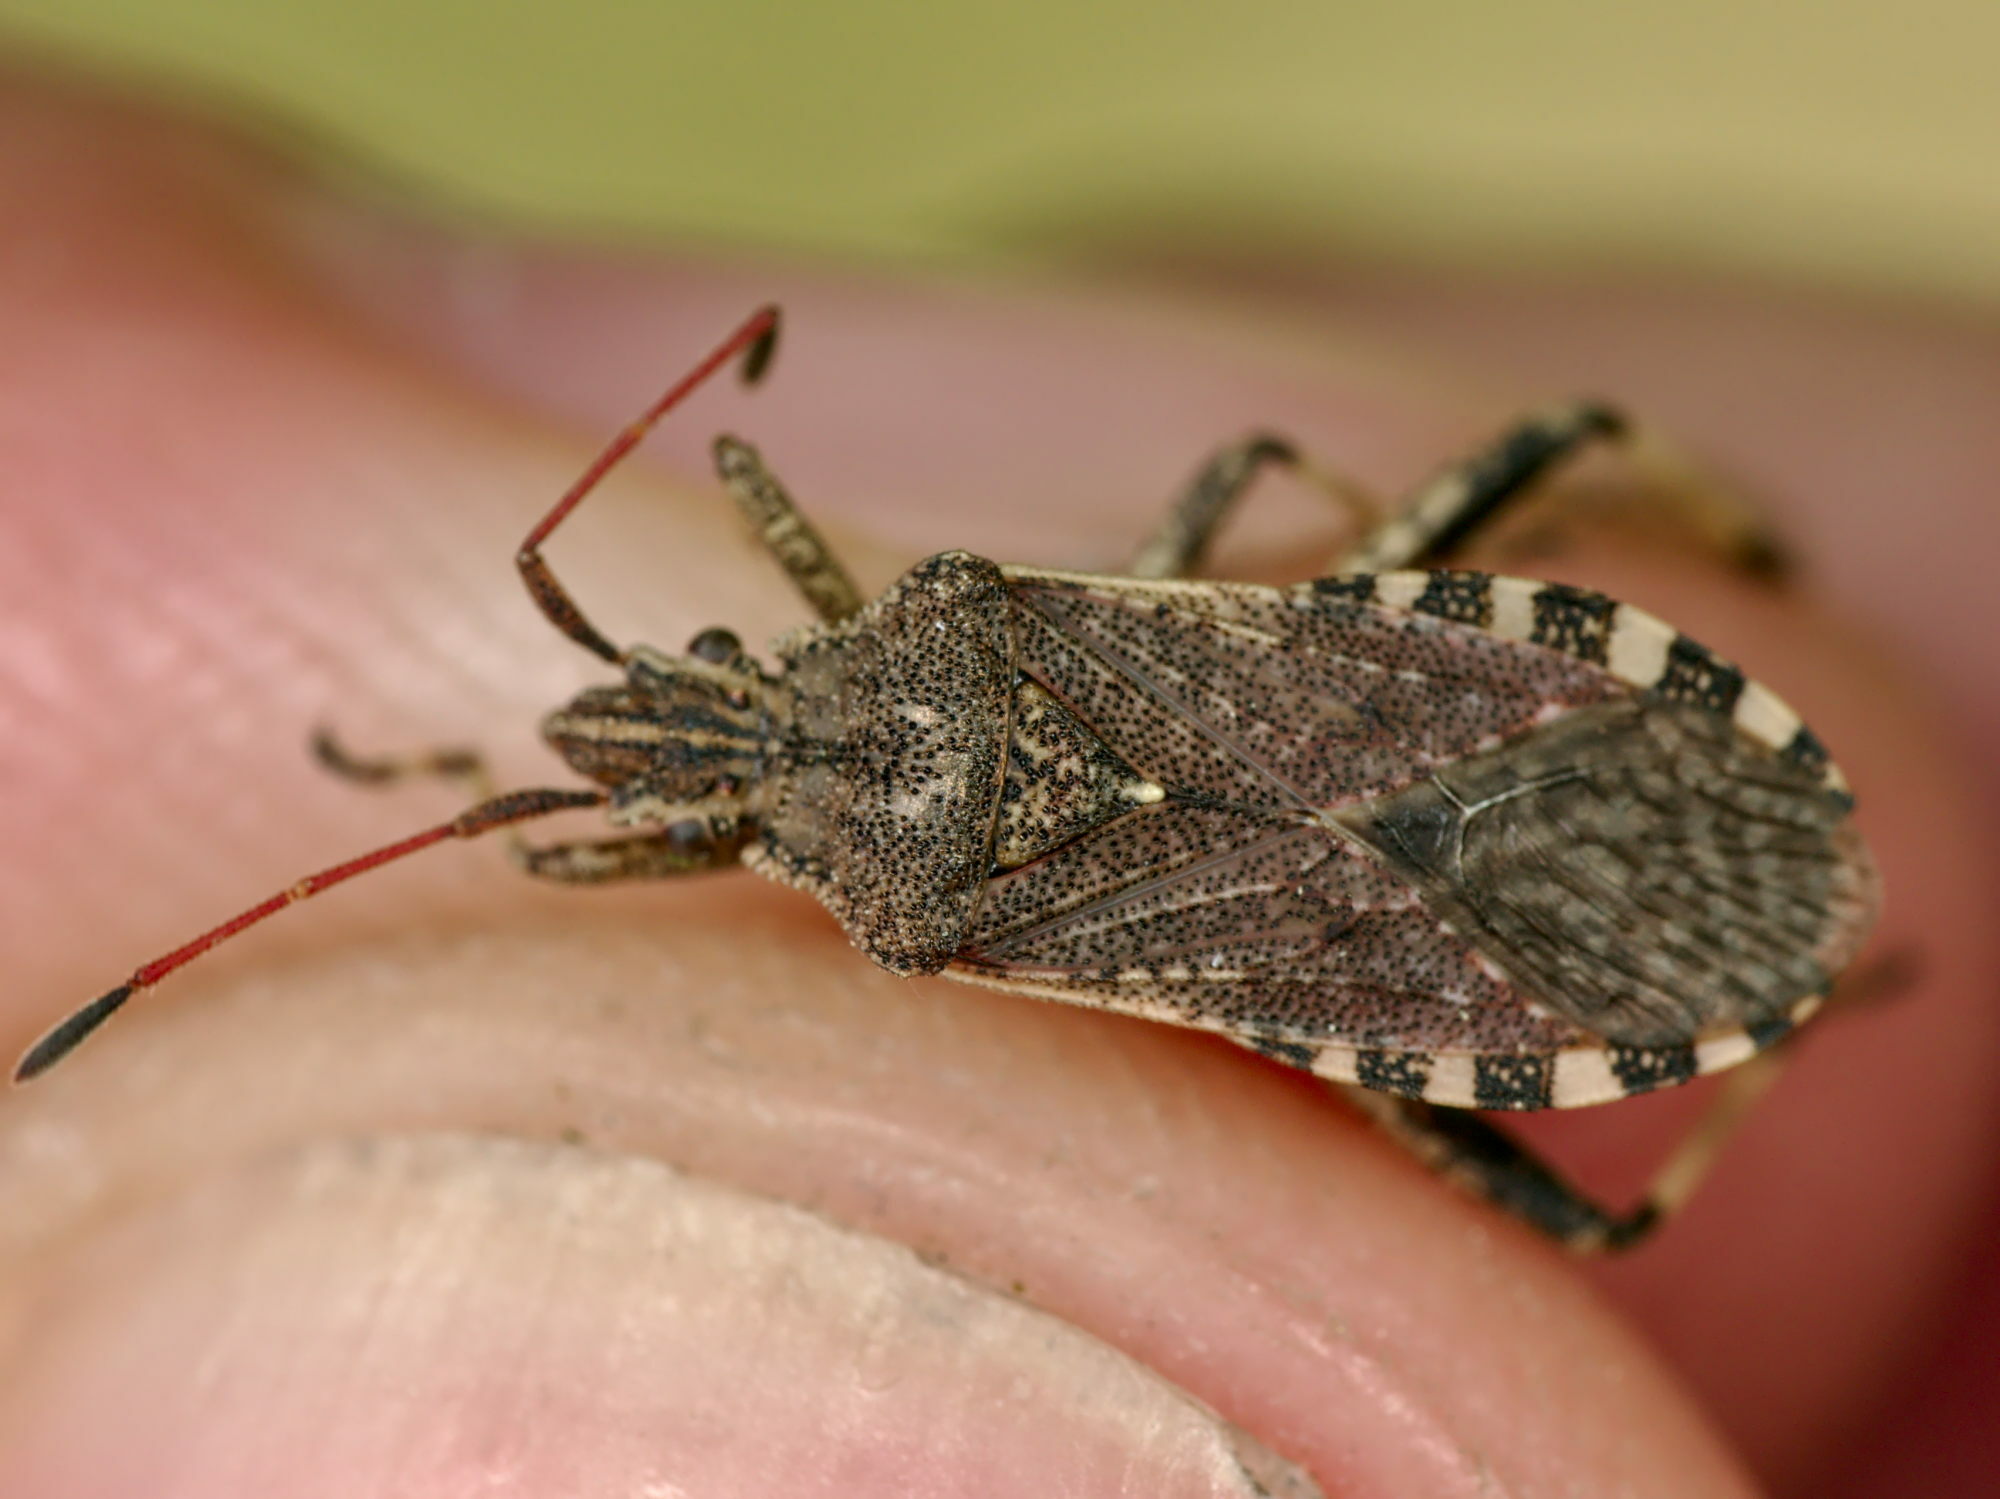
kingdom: Animalia
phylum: Arthropoda
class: Insecta
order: Hemiptera
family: Coreidae
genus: Ceraleptus
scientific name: Ceraleptus gracilicornis
